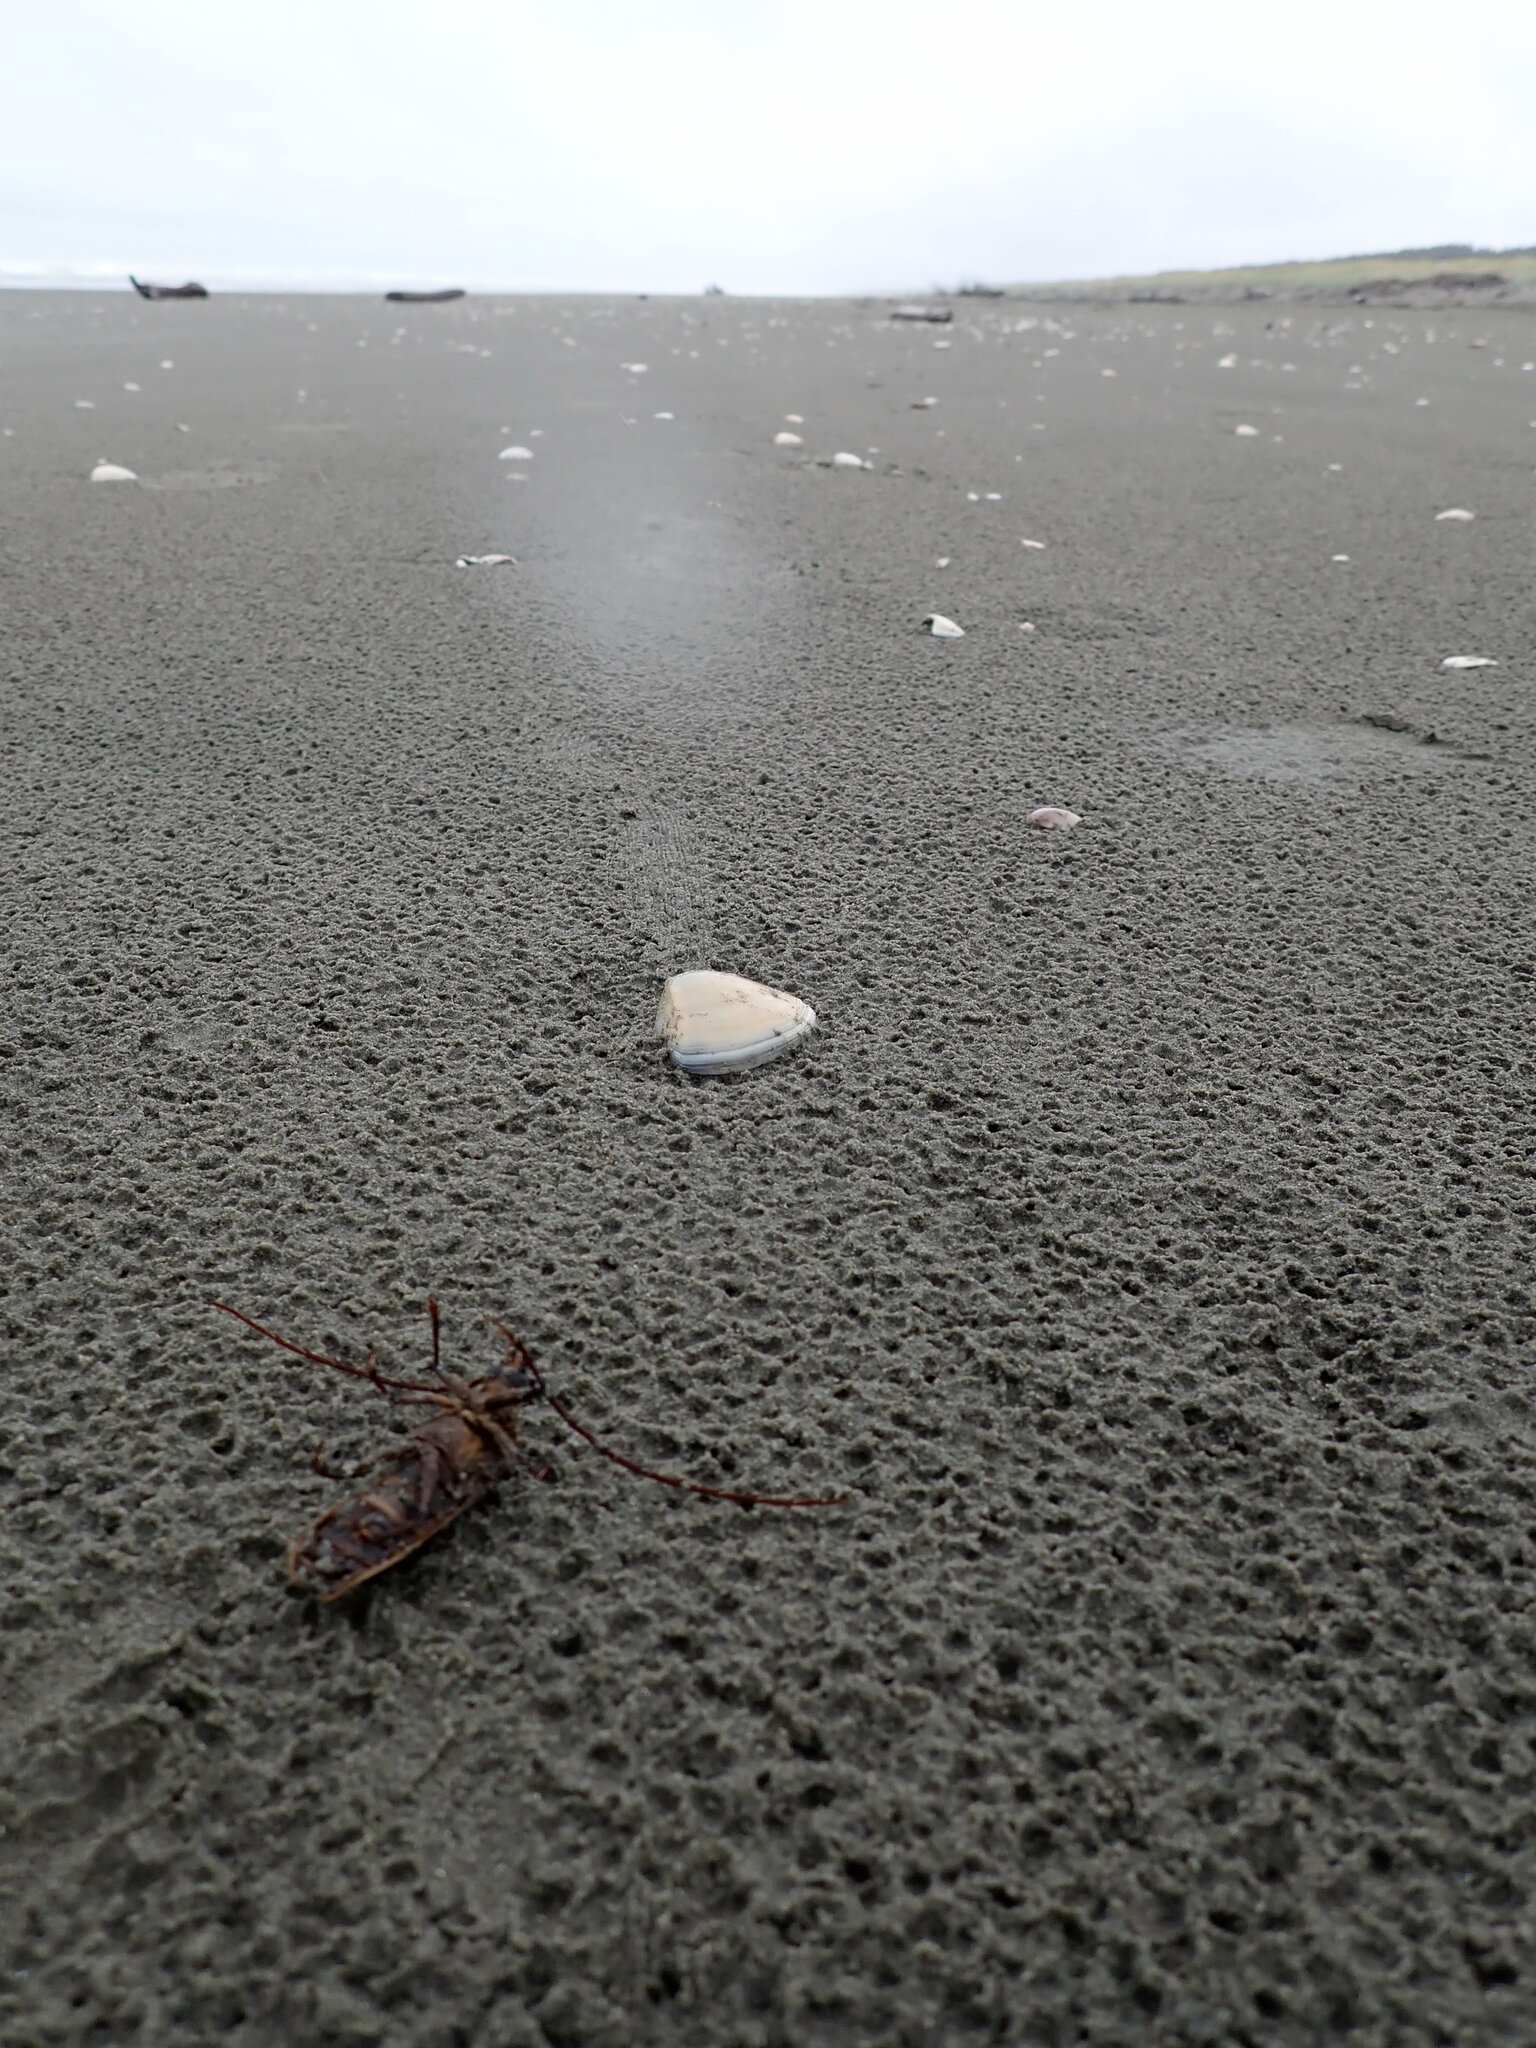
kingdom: Animalia
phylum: Arthropoda
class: Insecta
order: Coleoptera
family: Cerambycidae
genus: Prionoplus
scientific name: Prionoplus reticularis
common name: Huhu beetle
